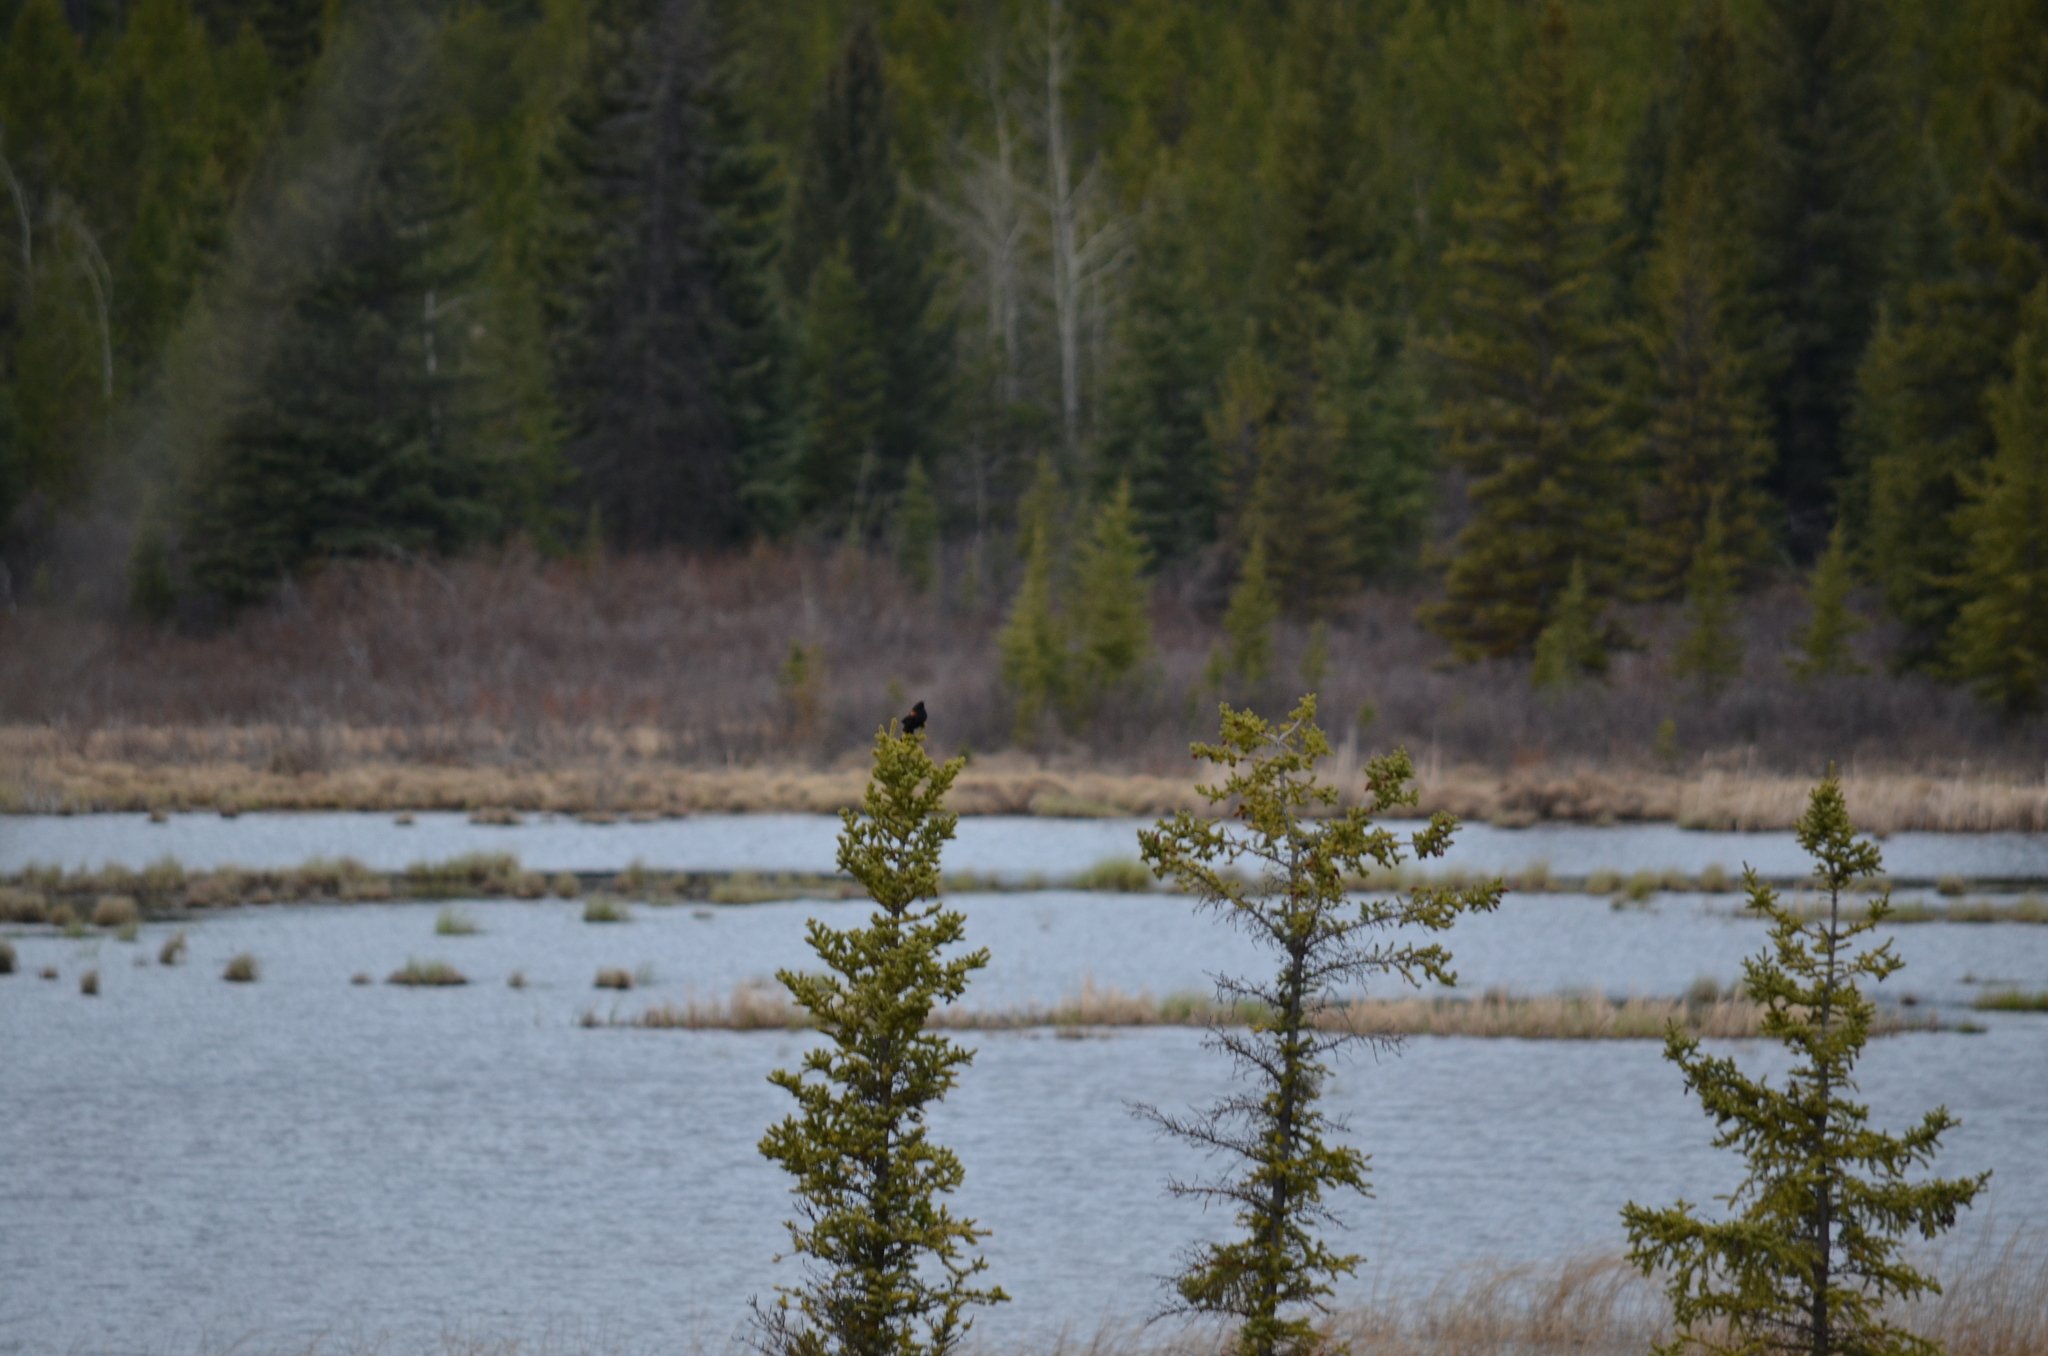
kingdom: Animalia
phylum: Chordata
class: Aves
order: Passeriformes
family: Icteridae
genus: Agelaius
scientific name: Agelaius phoeniceus
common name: Red-winged blackbird
